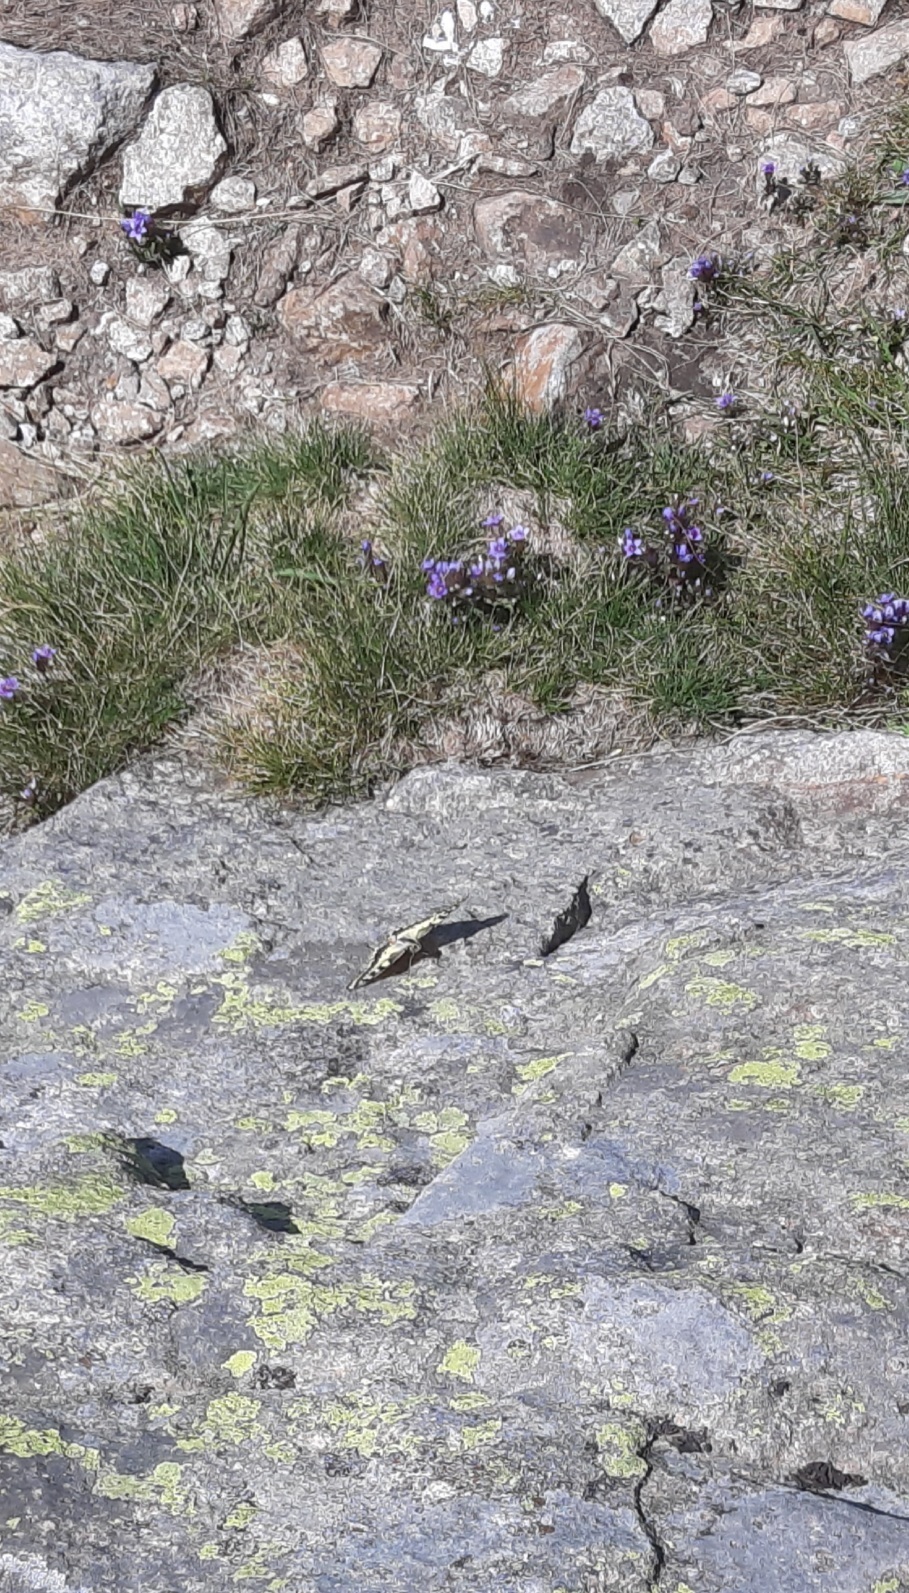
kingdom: Animalia
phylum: Arthropoda
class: Insecta
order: Lepidoptera
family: Papilionidae
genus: Papilio
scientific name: Papilio machaon
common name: Swallowtail
